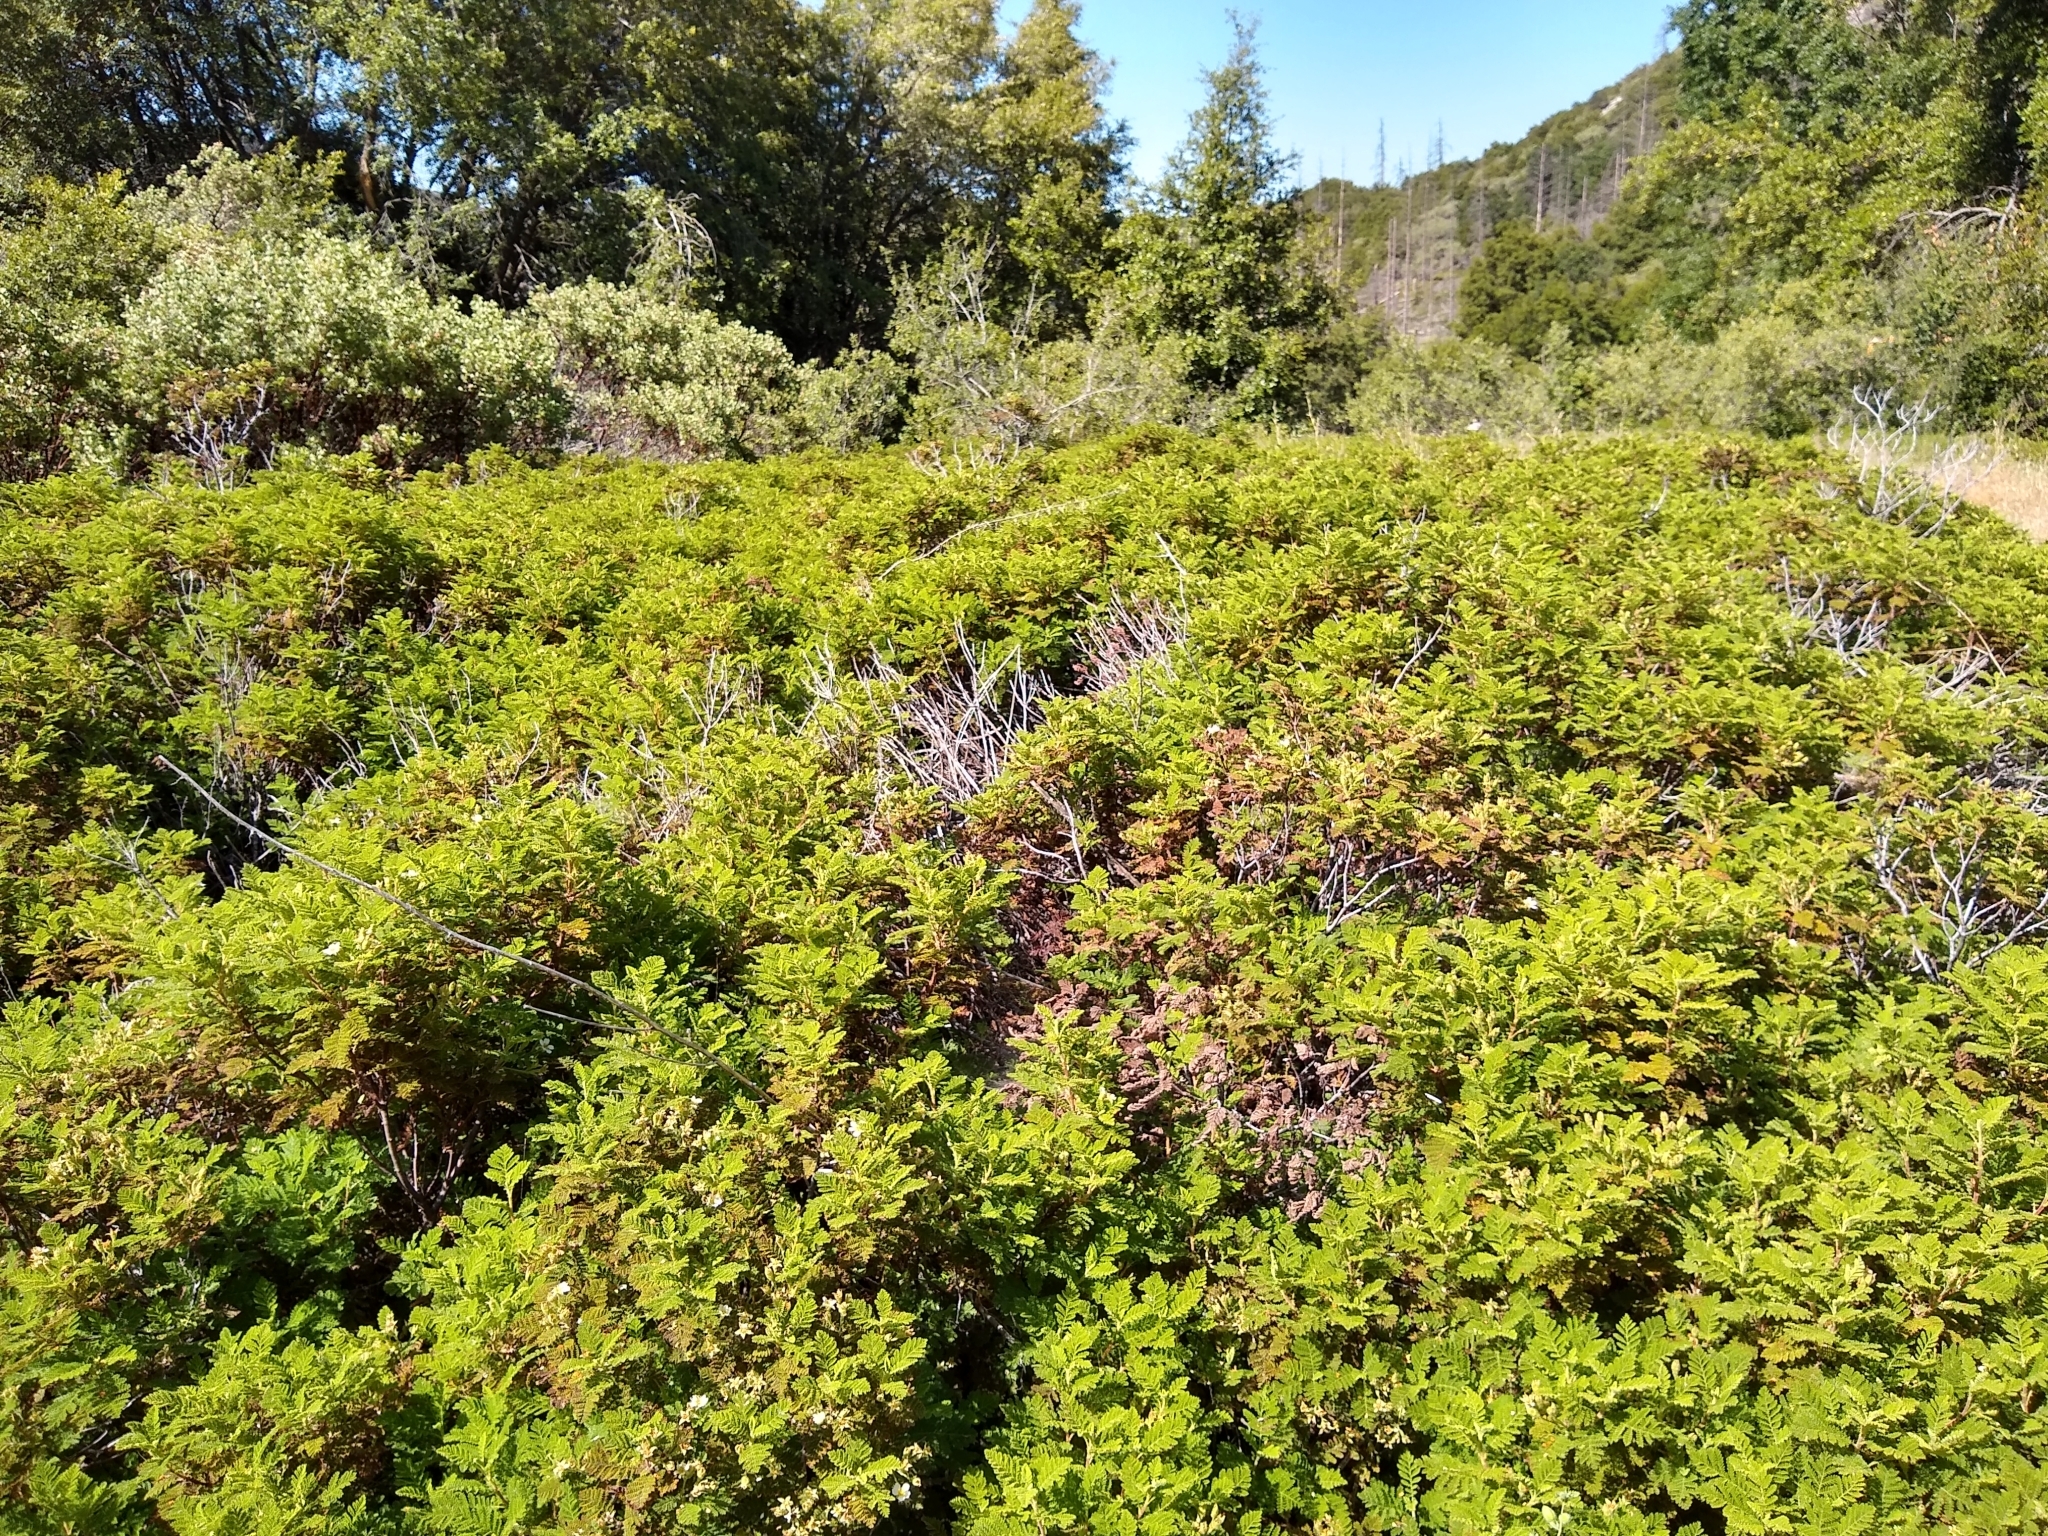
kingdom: Plantae
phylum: Tracheophyta
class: Magnoliopsida
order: Rosales
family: Rosaceae
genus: Chamaebatia
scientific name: Chamaebatia foliolosa
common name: Mountain misery
